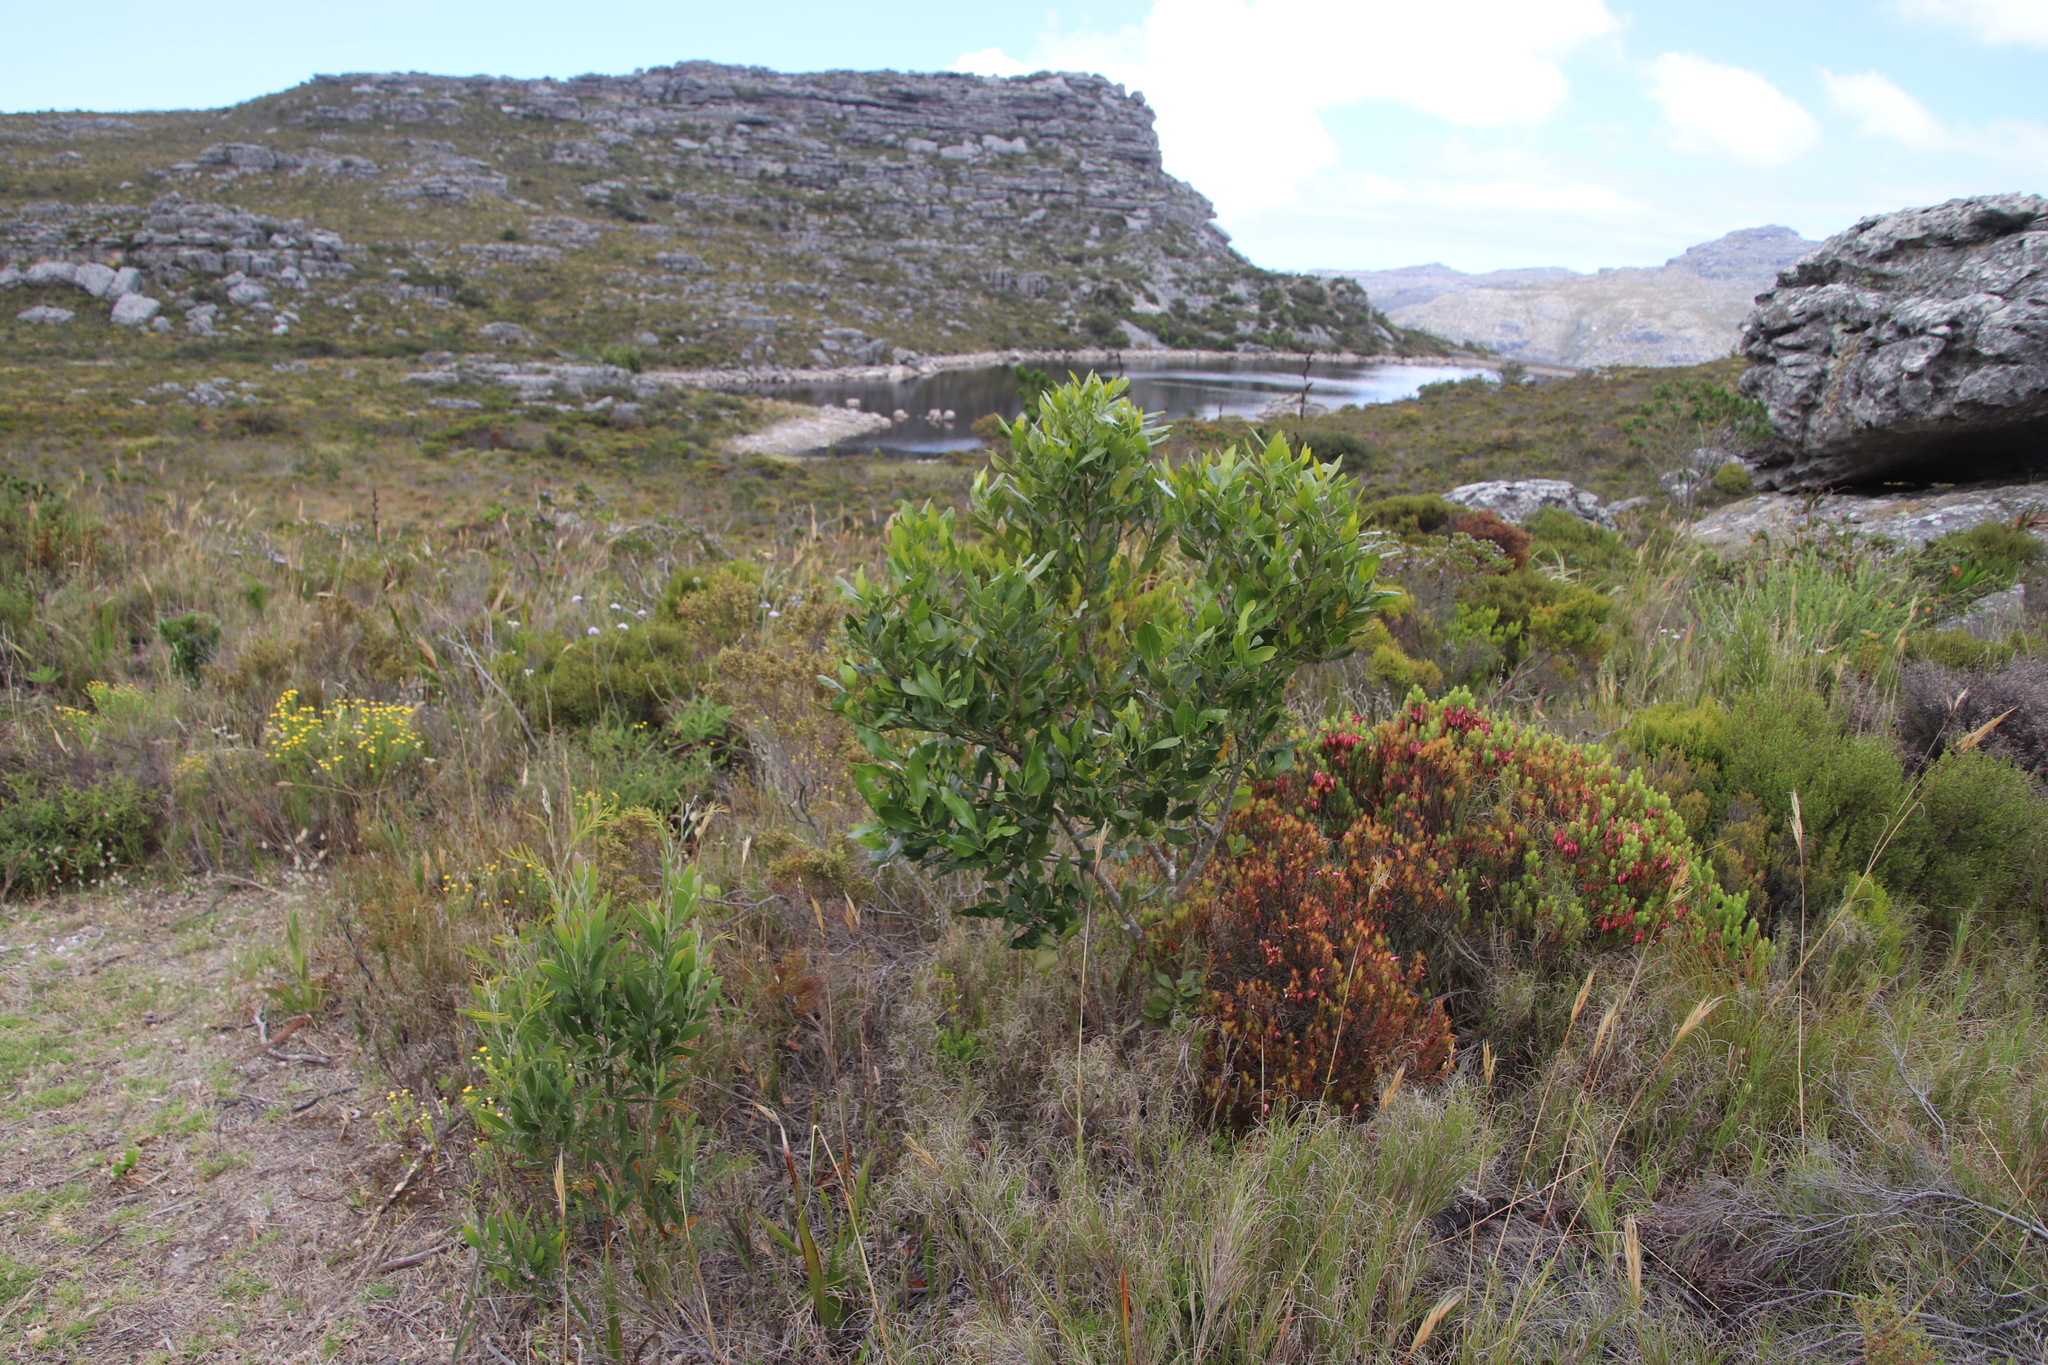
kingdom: Plantae
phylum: Tracheophyta
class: Magnoliopsida
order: Lamiales
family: Oleaceae
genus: Olea
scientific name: Olea capensis
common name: Black ironwood
